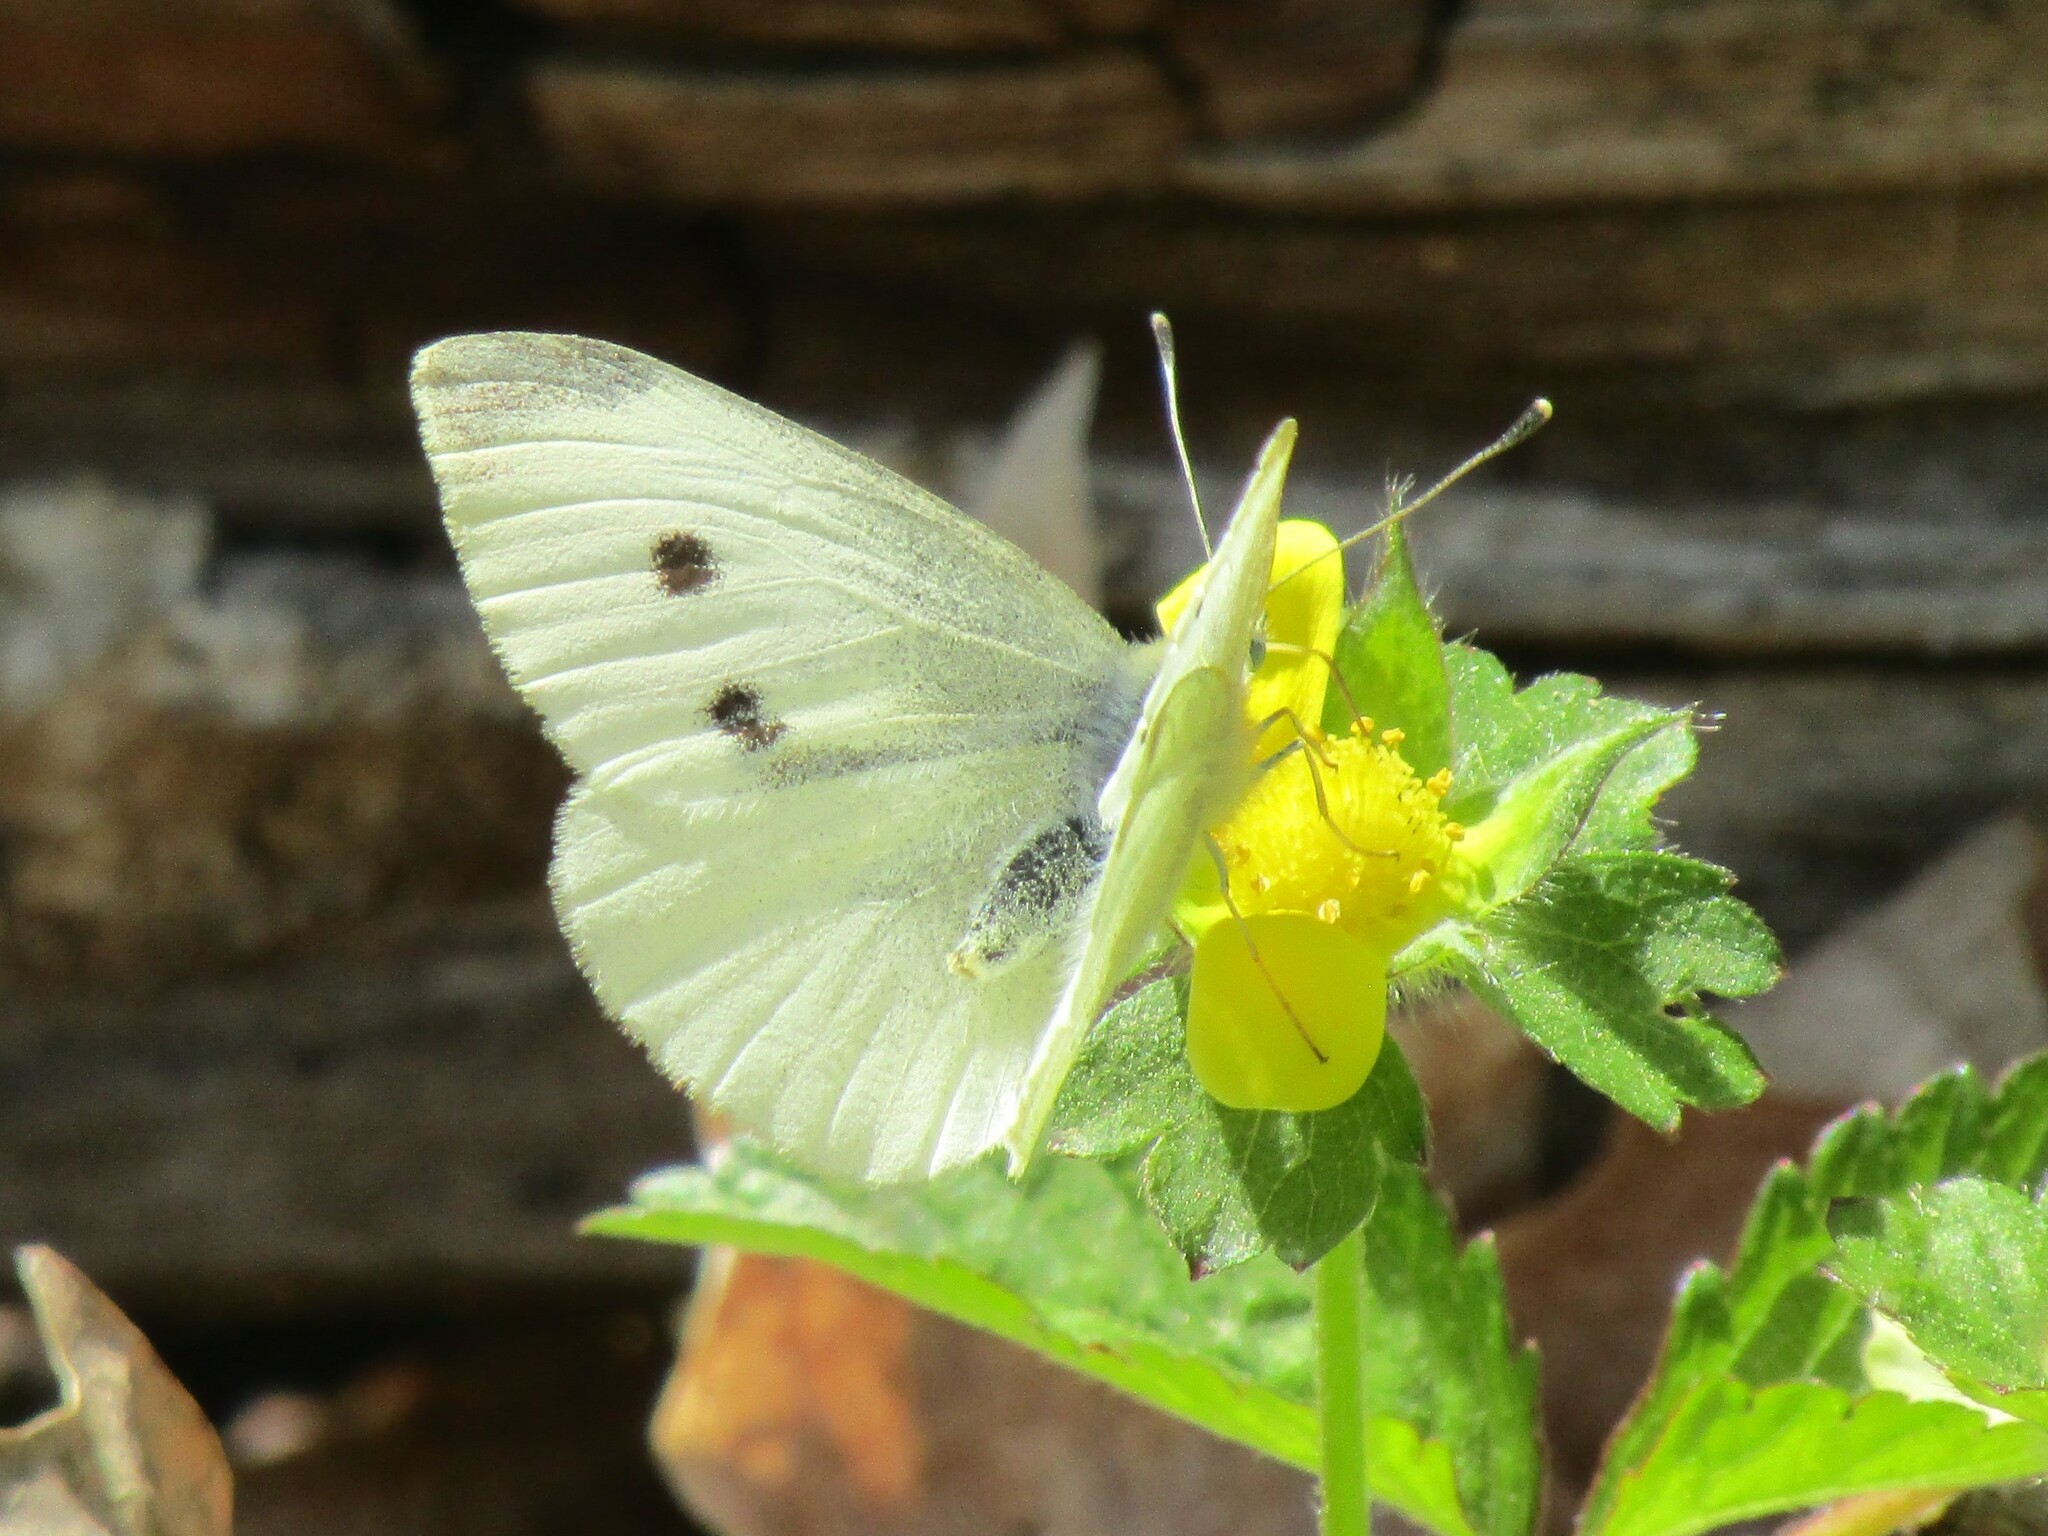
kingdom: Animalia
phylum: Arthropoda
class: Insecta
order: Lepidoptera
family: Pieridae
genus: Pieris
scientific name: Pieris rapae
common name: Small white
